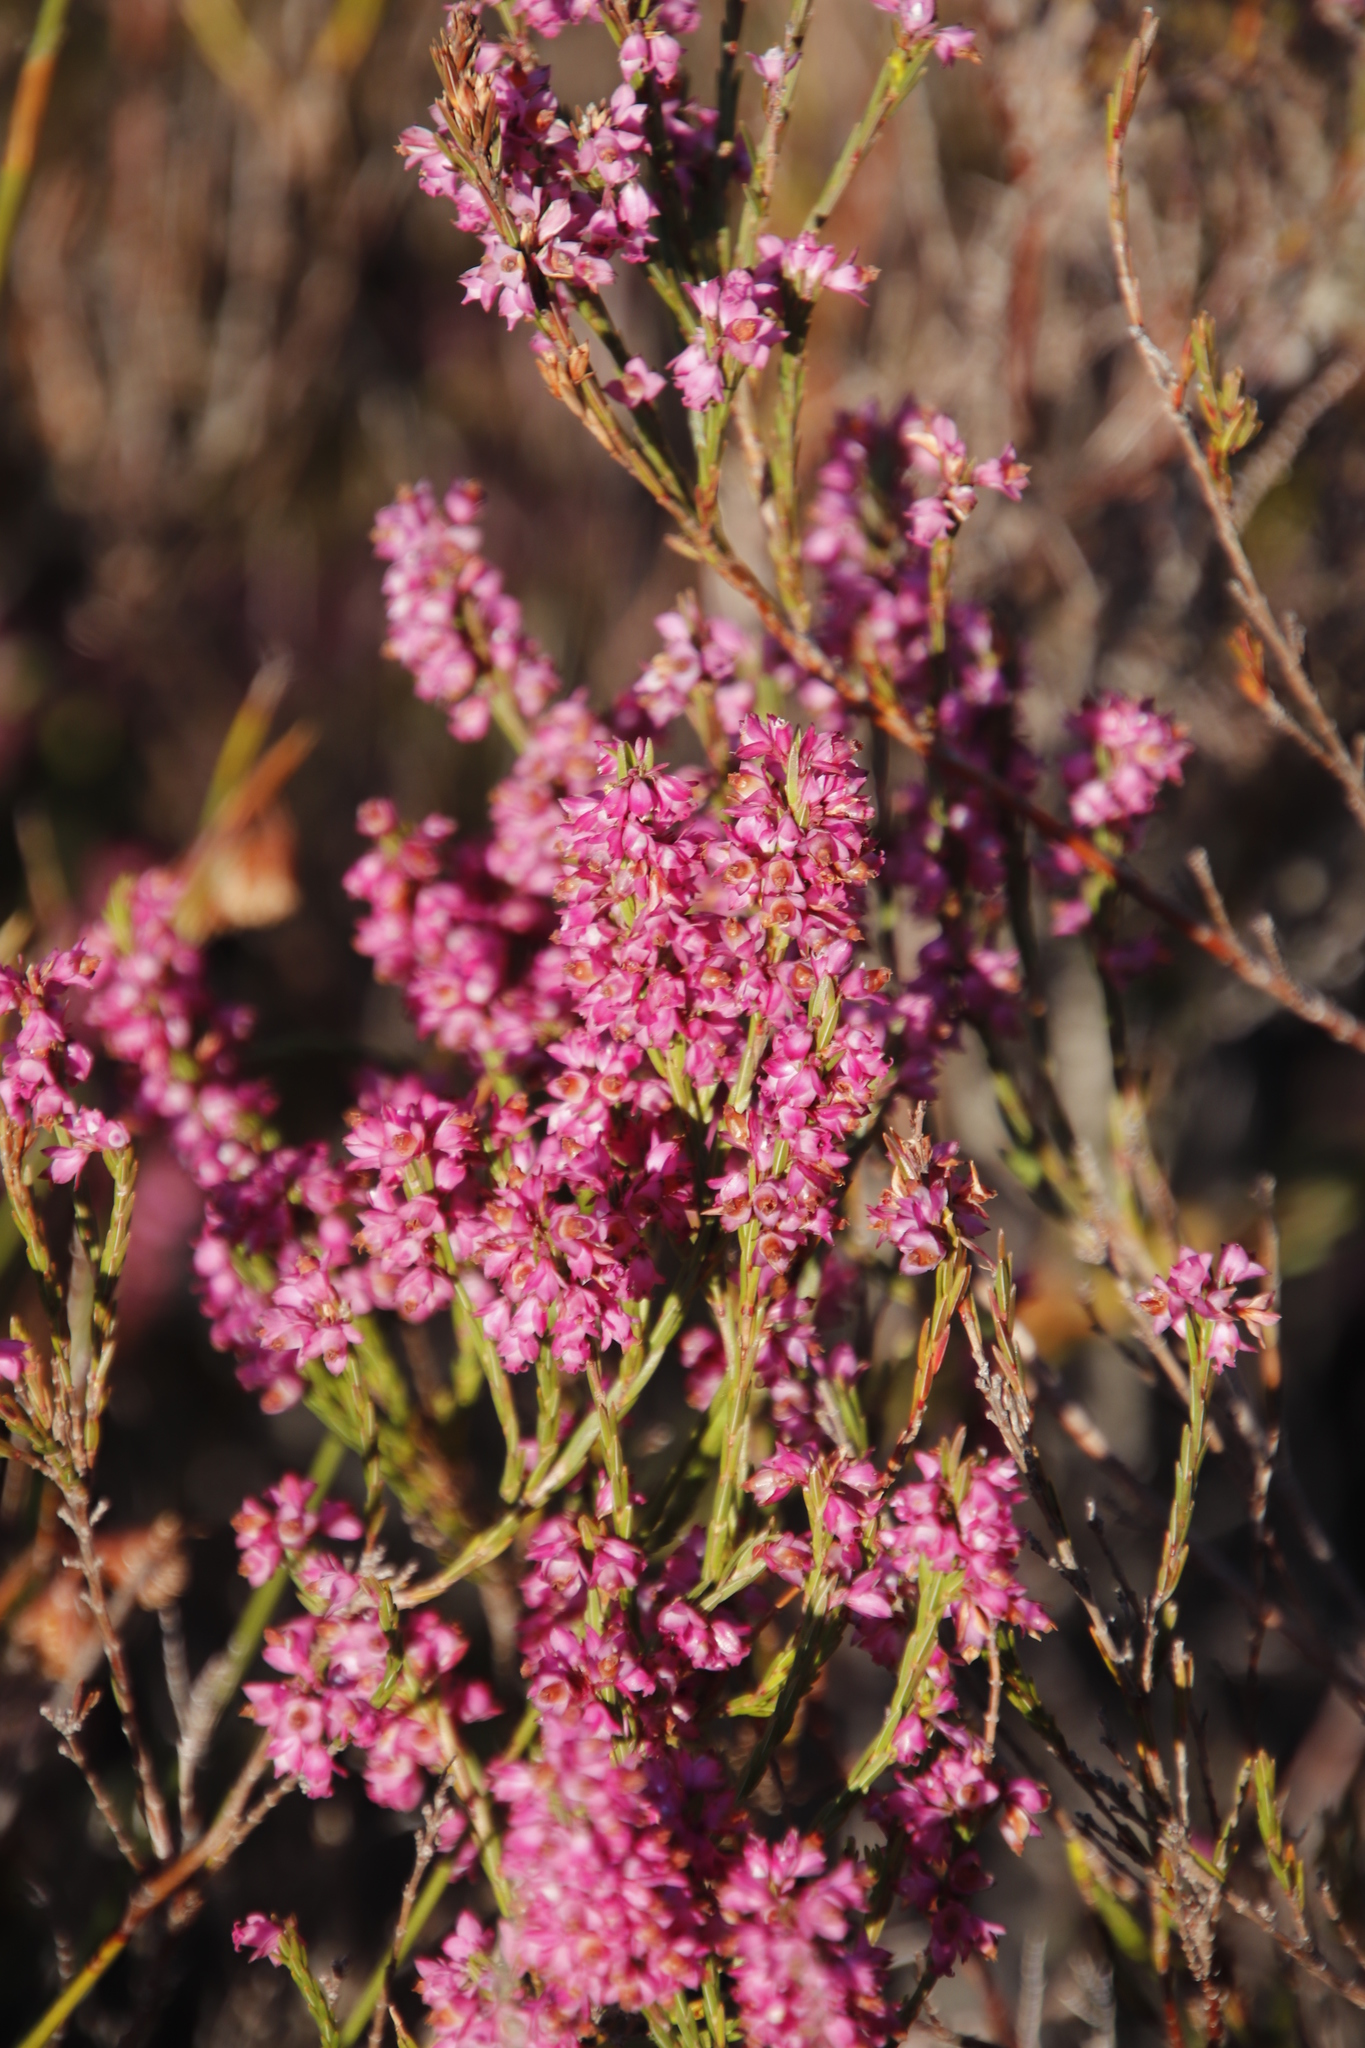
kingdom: Plantae
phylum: Tracheophyta
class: Magnoliopsida
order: Ericales
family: Ericaceae
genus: Erica
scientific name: Erica corifolia
